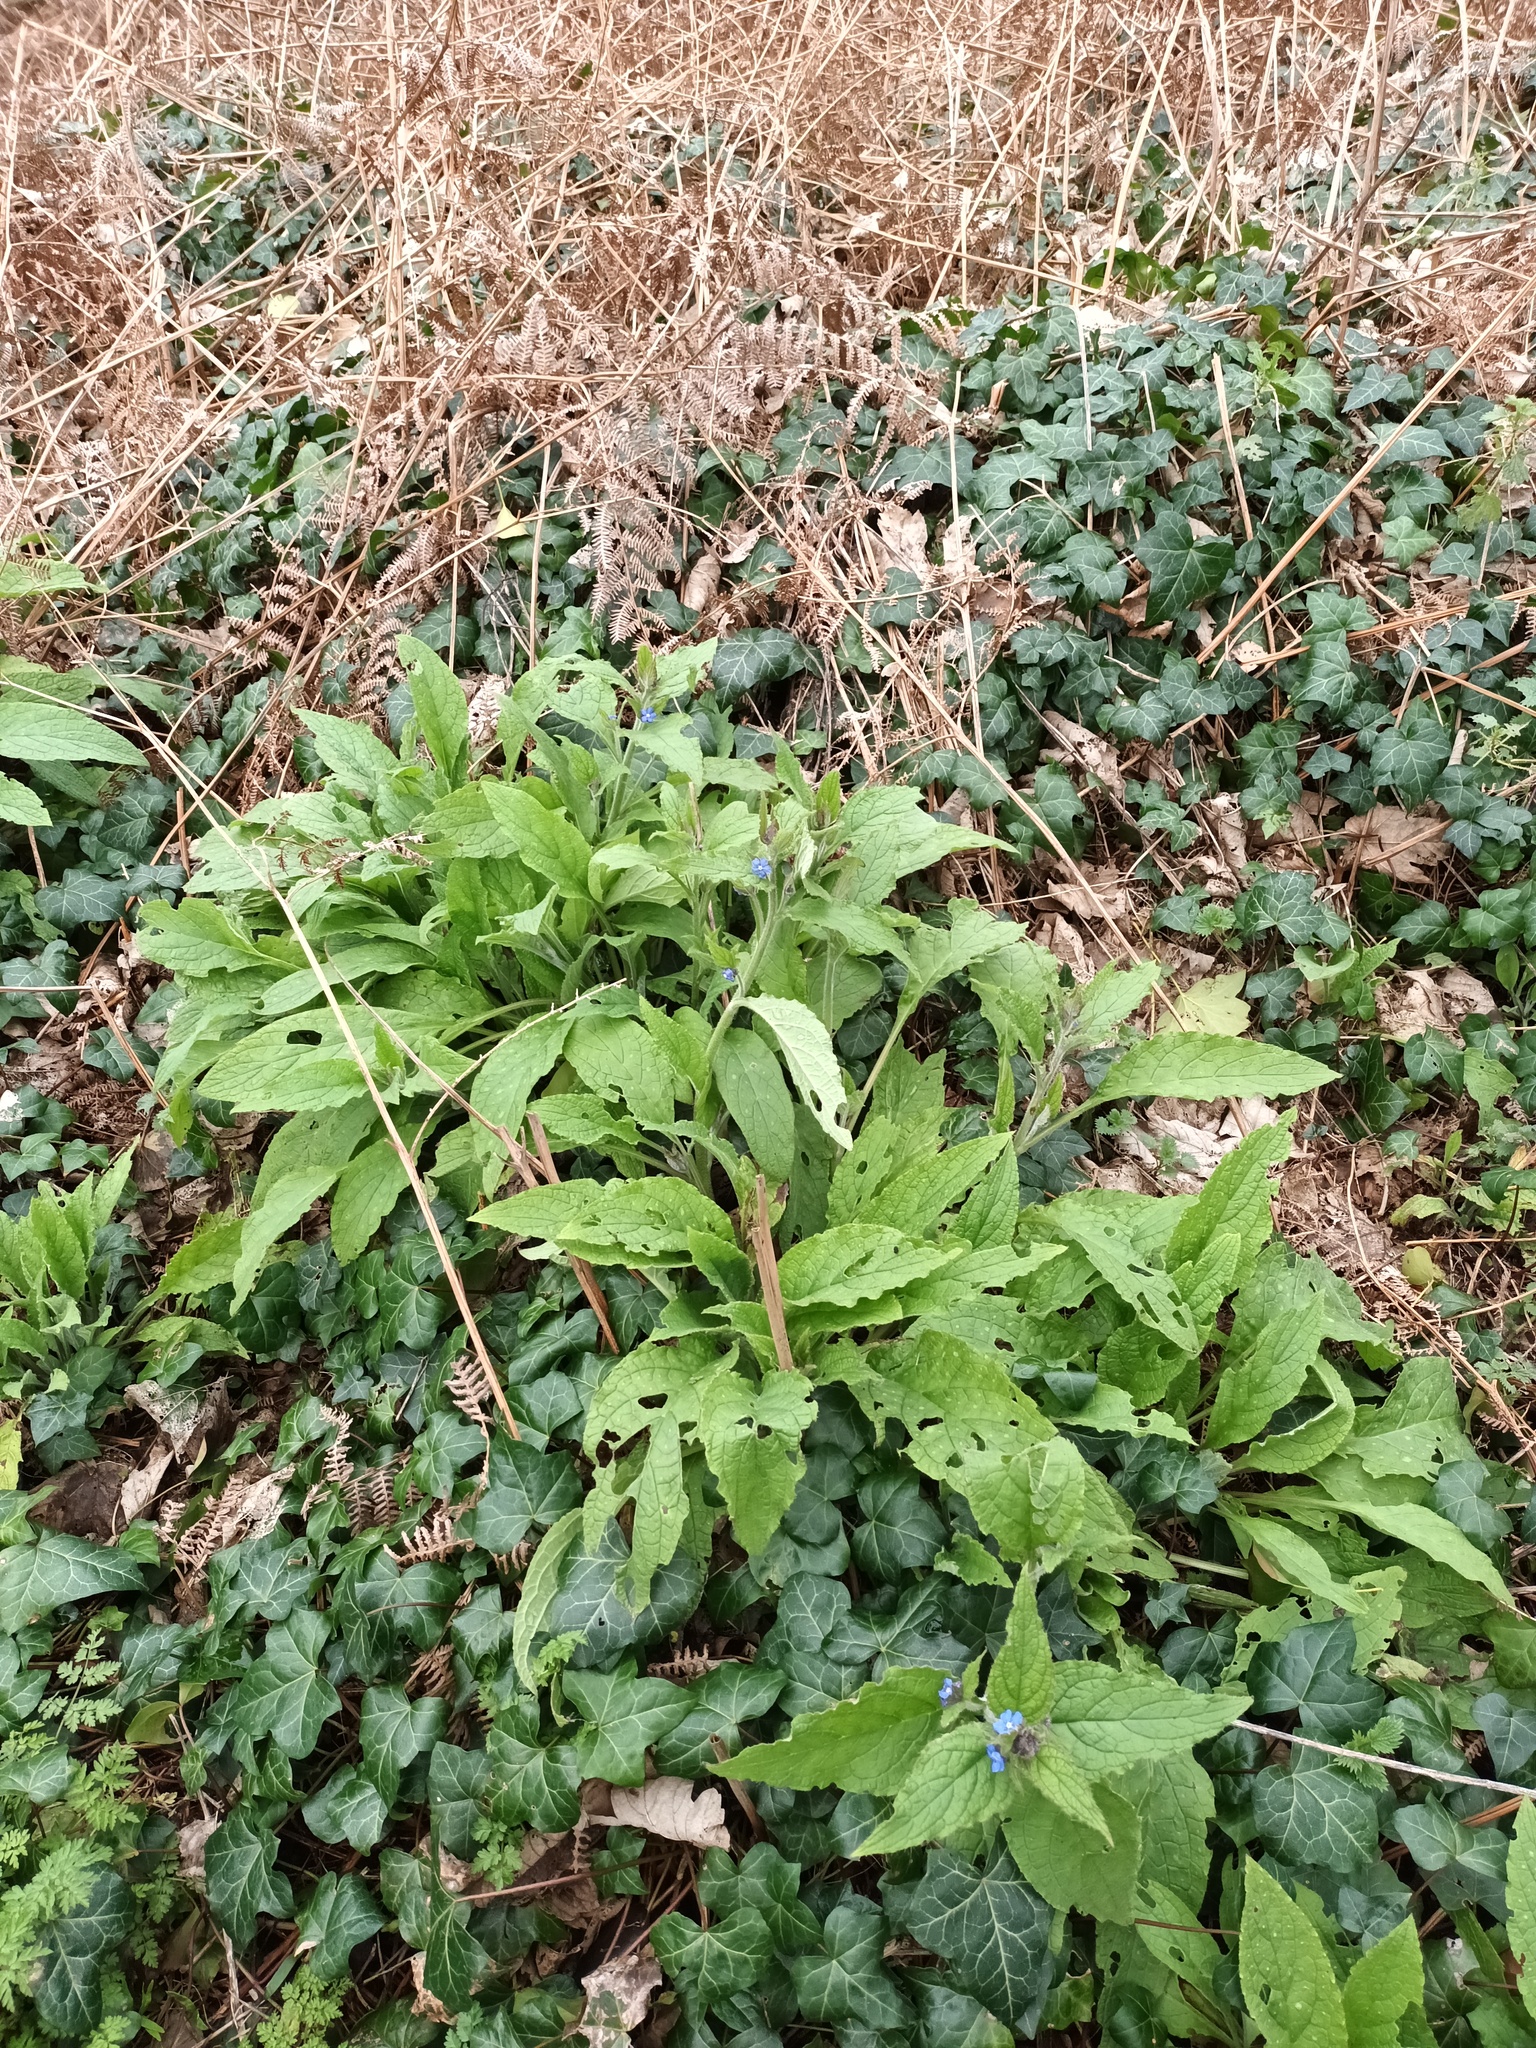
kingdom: Plantae
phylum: Tracheophyta
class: Magnoliopsida
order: Boraginales
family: Boraginaceae
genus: Pentaglottis
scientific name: Pentaglottis sempervirens
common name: Green alkanet
